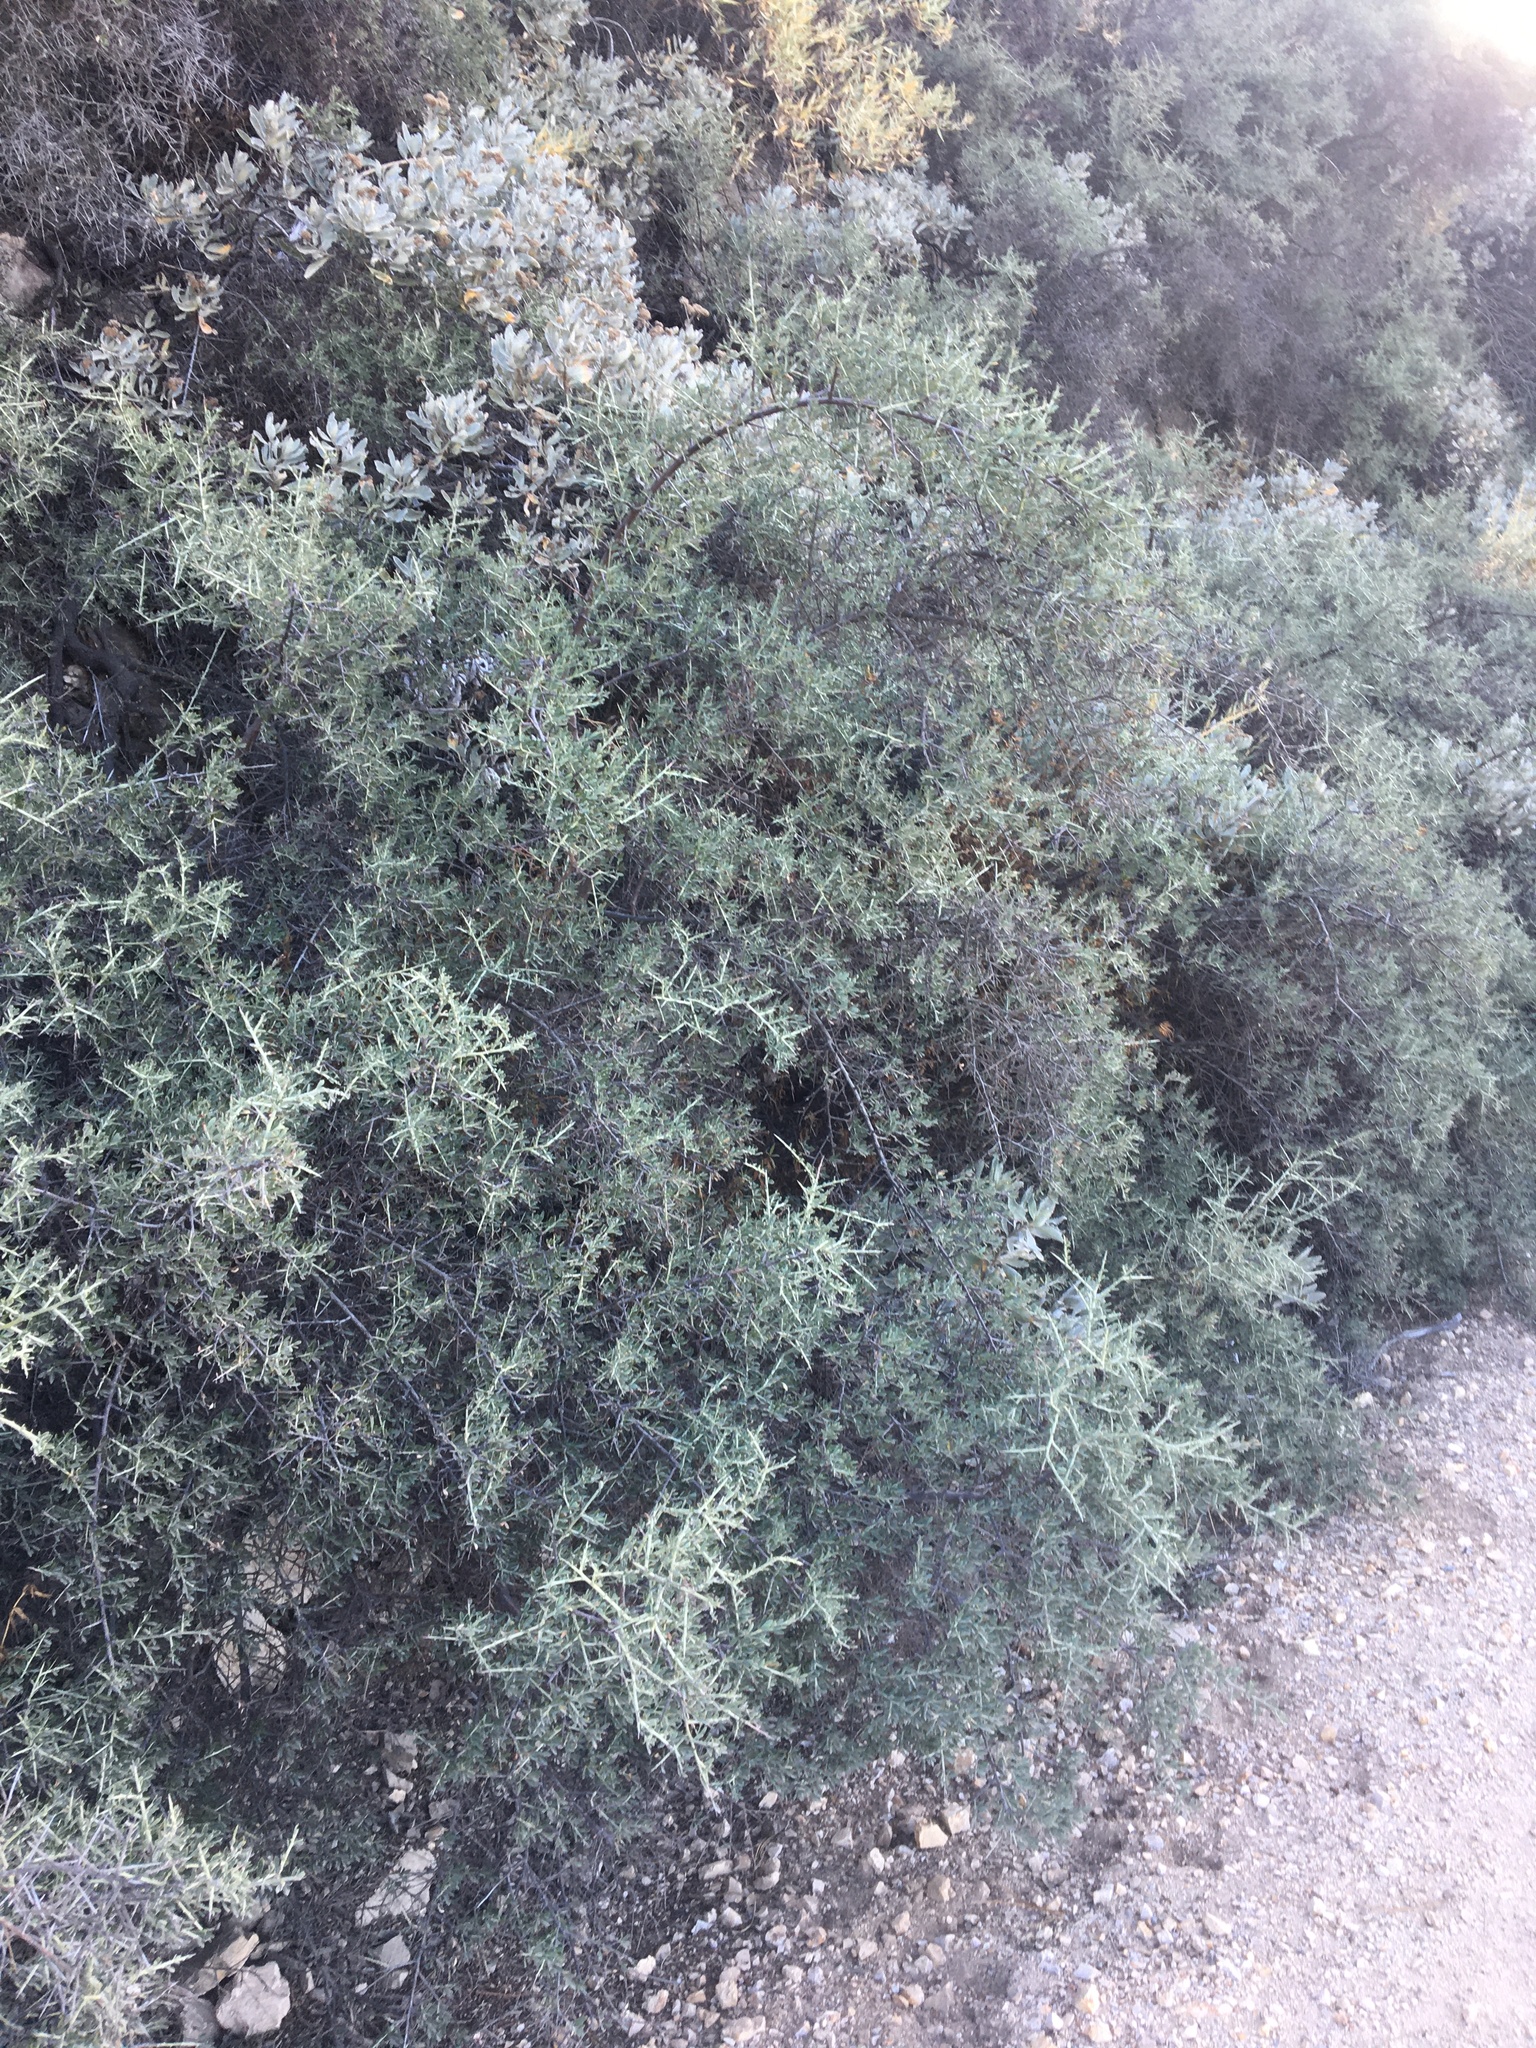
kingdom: Plantae
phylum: Tracheophyta
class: Magnoliopsida
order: Fabales
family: Fabaceae
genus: Pickeringia
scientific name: Pickeringia montana
